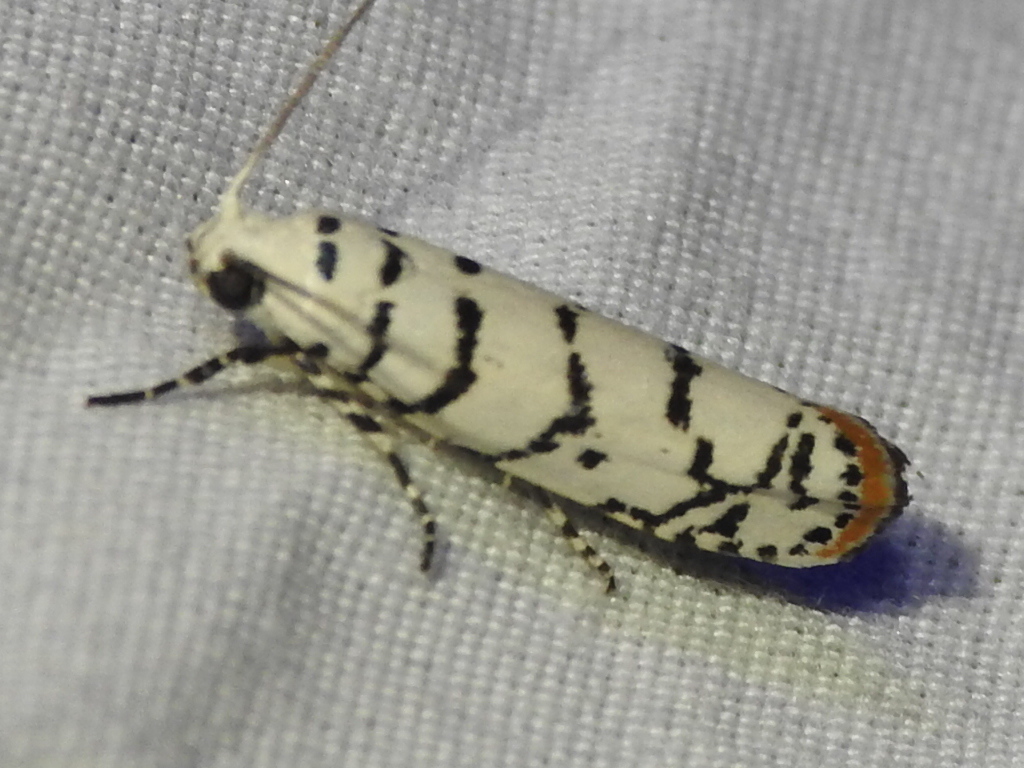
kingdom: Animalia
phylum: Arthropoda
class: Insecta
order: Lepidoptera
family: Ethmiidae
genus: Ethmia
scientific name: Ethmia delliella
